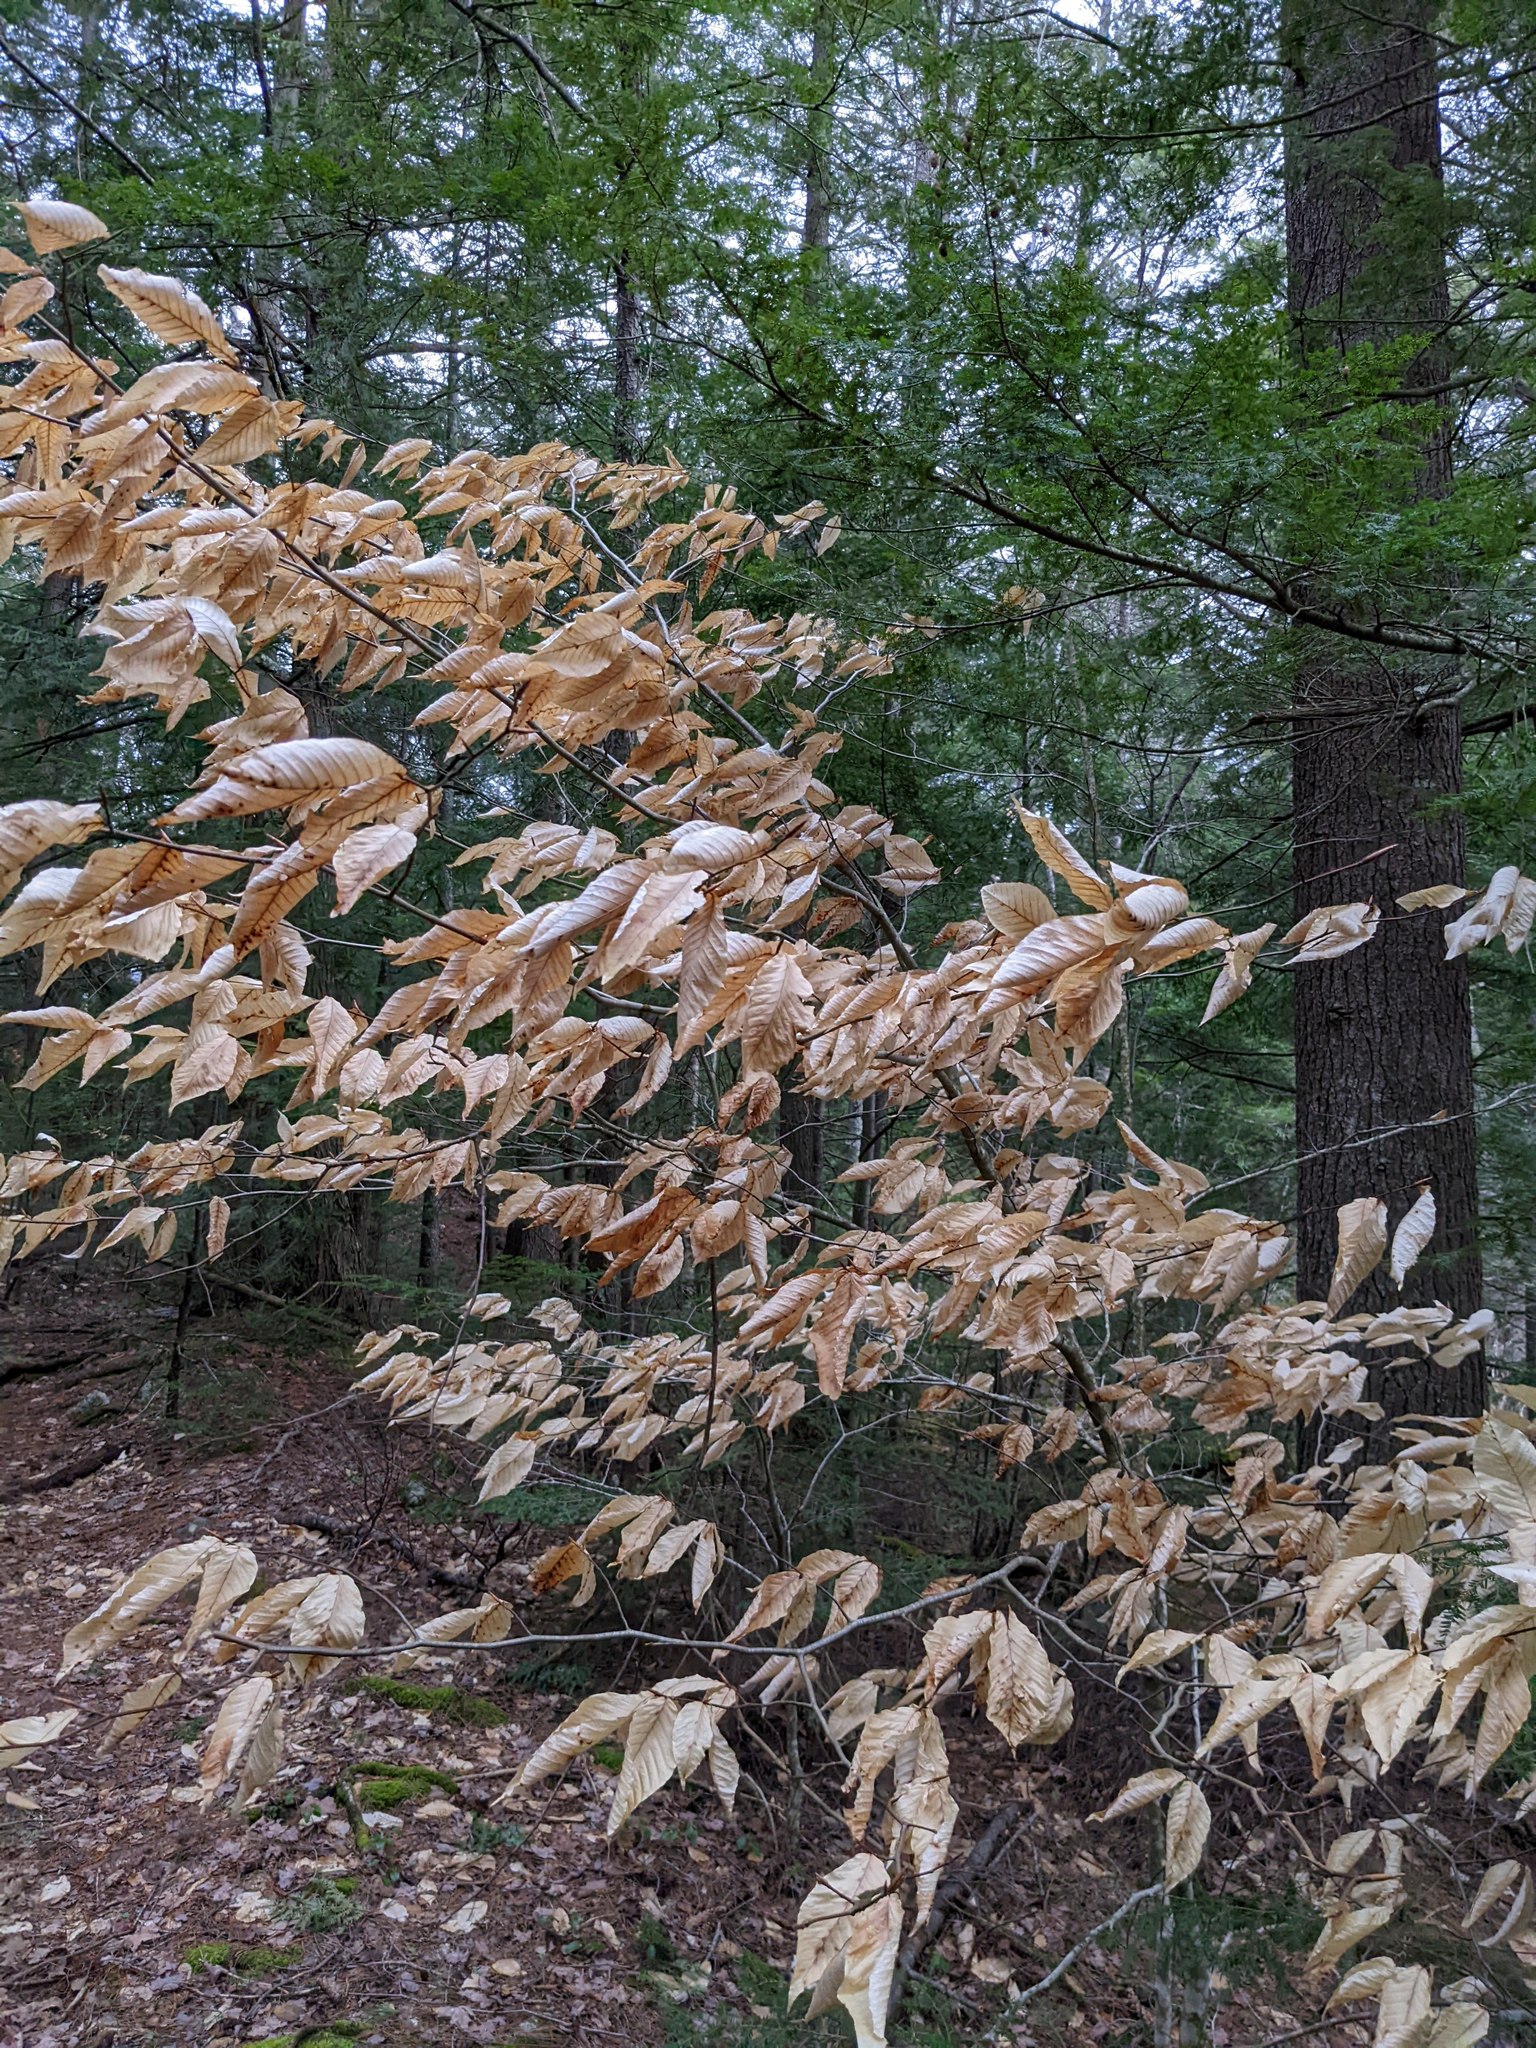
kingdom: Plantae
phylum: Tracheophyta
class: Magnoliopsida
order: Fagales
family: Fagaceae
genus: Fagus
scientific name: Fagus grandifolia
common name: American beech
